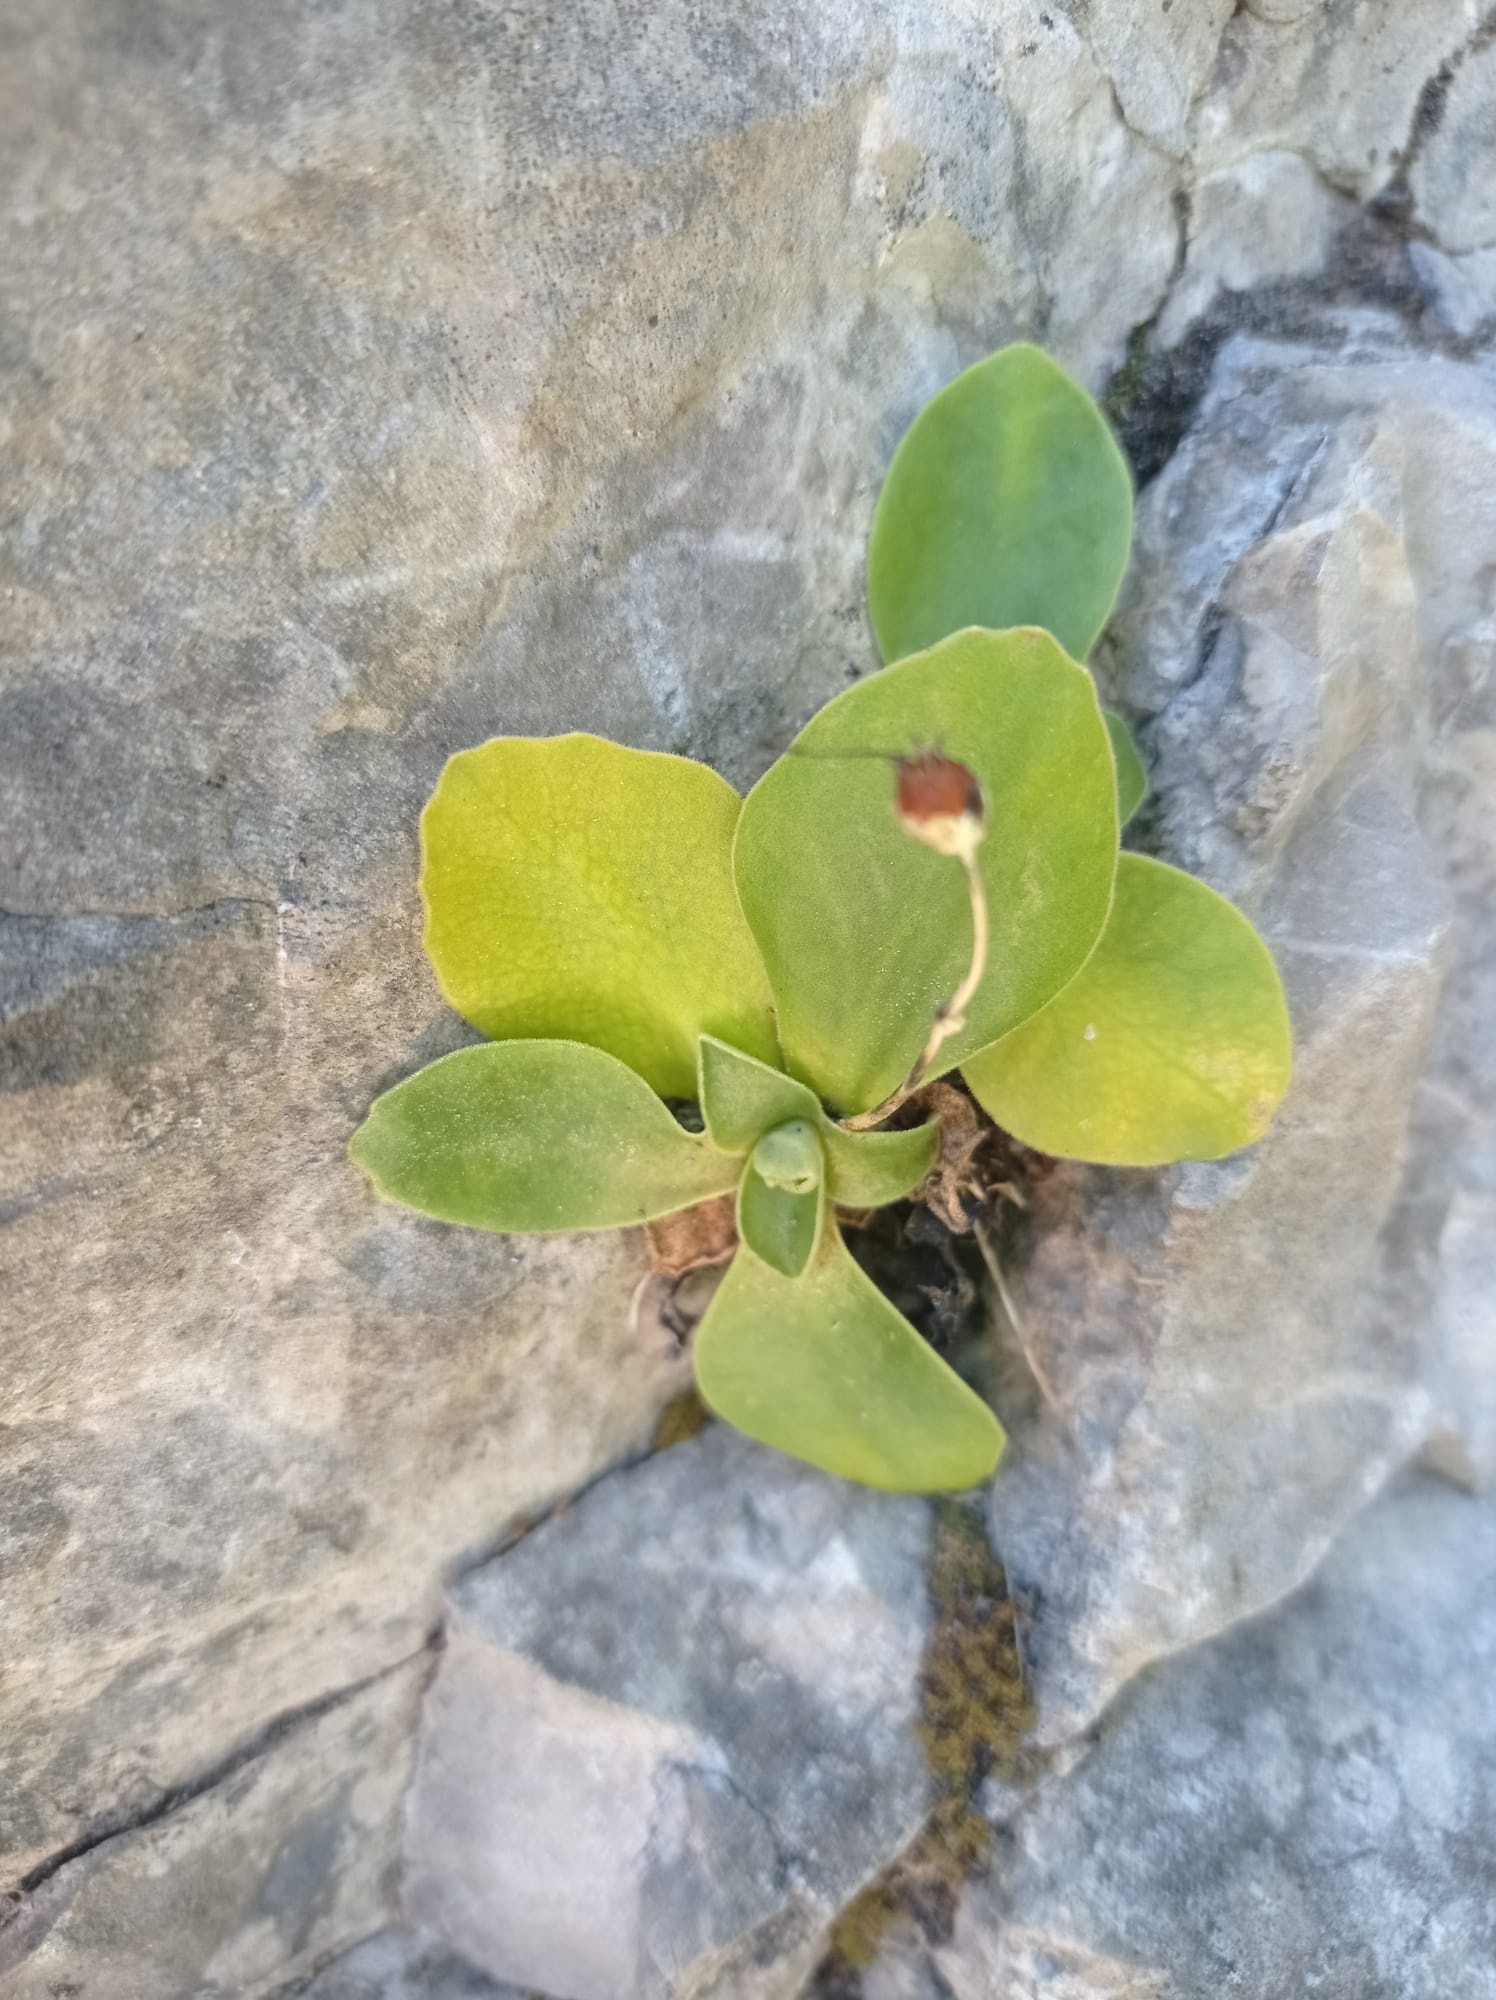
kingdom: Plantae
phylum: Tracheophyta
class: Magnoliopsida
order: Ericales
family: Primulaceae
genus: Primula
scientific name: Primula auricula
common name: Auricula
